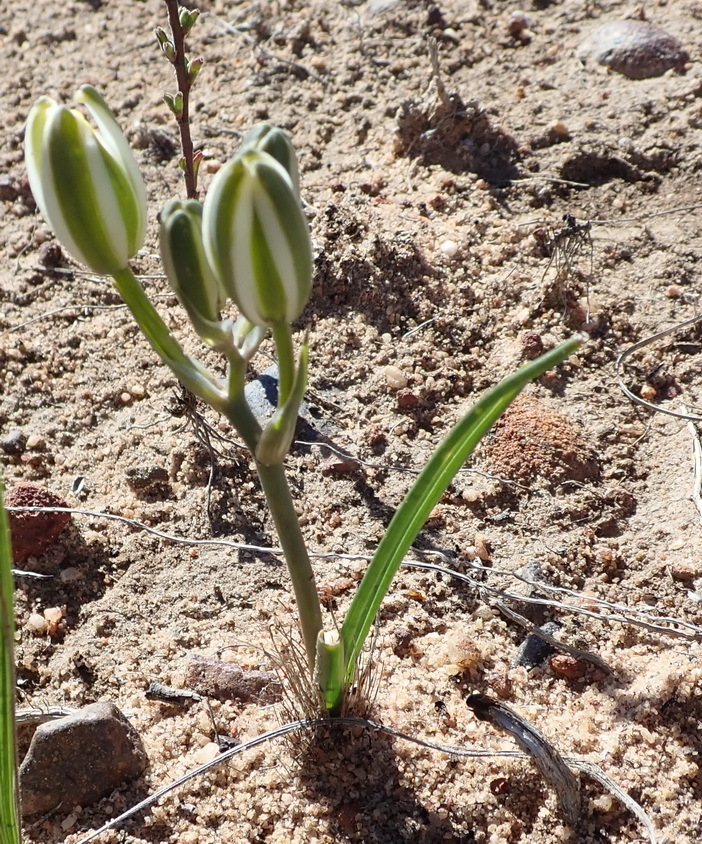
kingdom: Plantae
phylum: Tracheophyta
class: Liliopsida
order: Asparagales
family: Asparagaceae
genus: Albuca
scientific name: Albuca longipes
